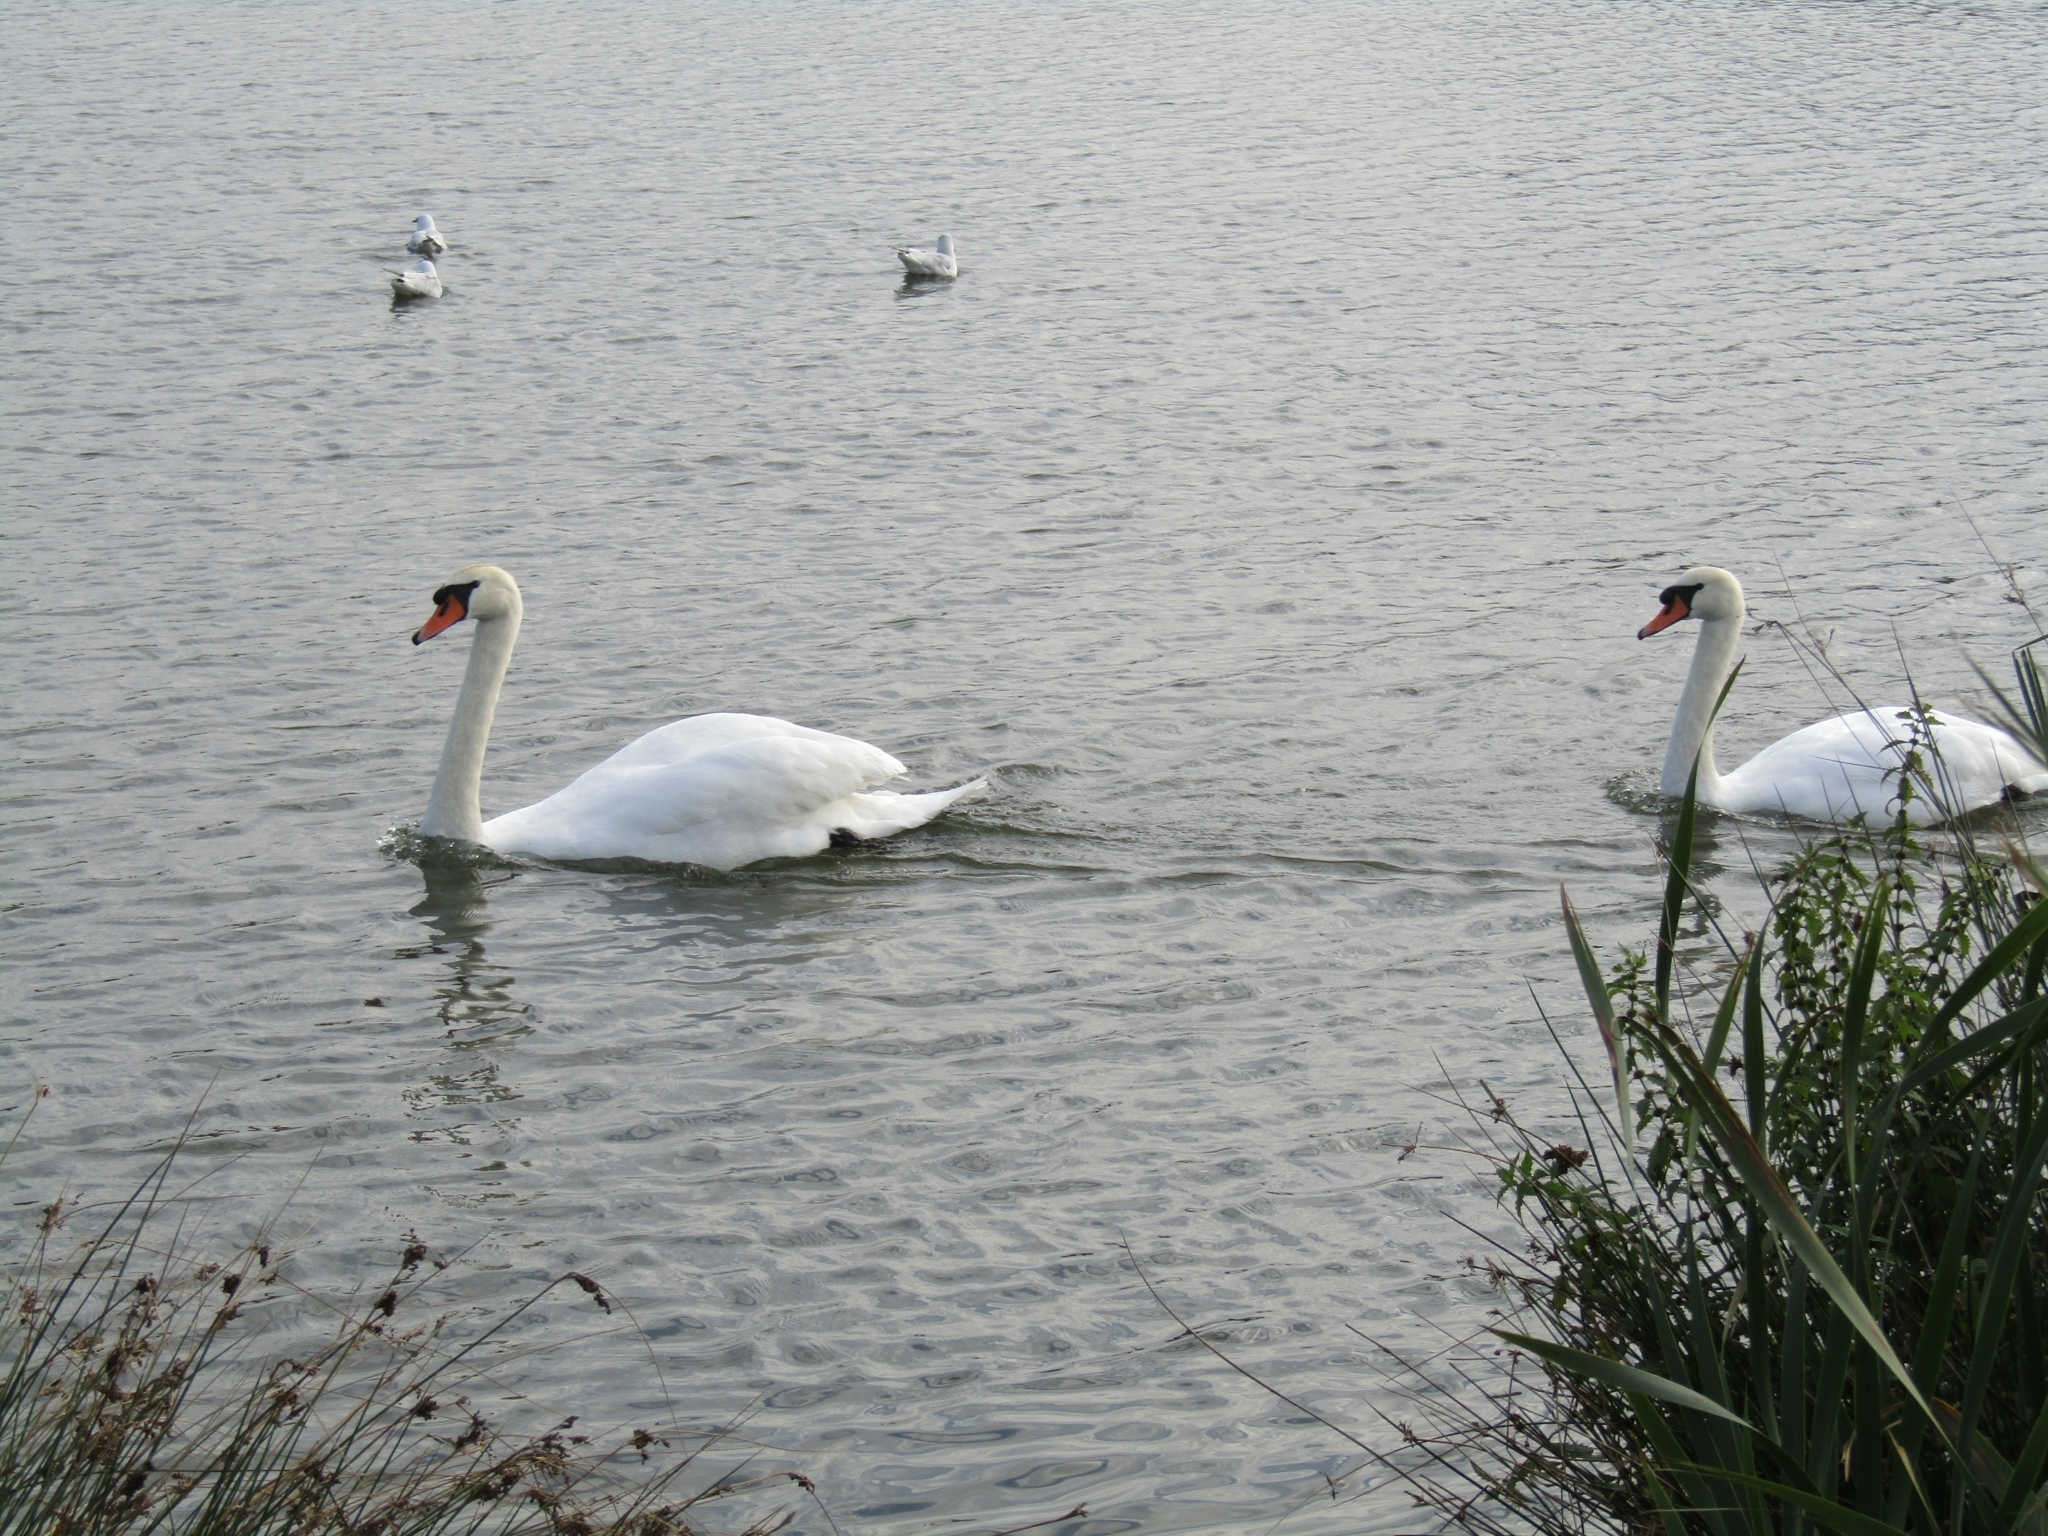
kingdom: Animalia
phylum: Chordata
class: Aves
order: Anseriformes
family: Anatidae
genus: Cygnus
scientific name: Cygnus olor
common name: Mute swan
